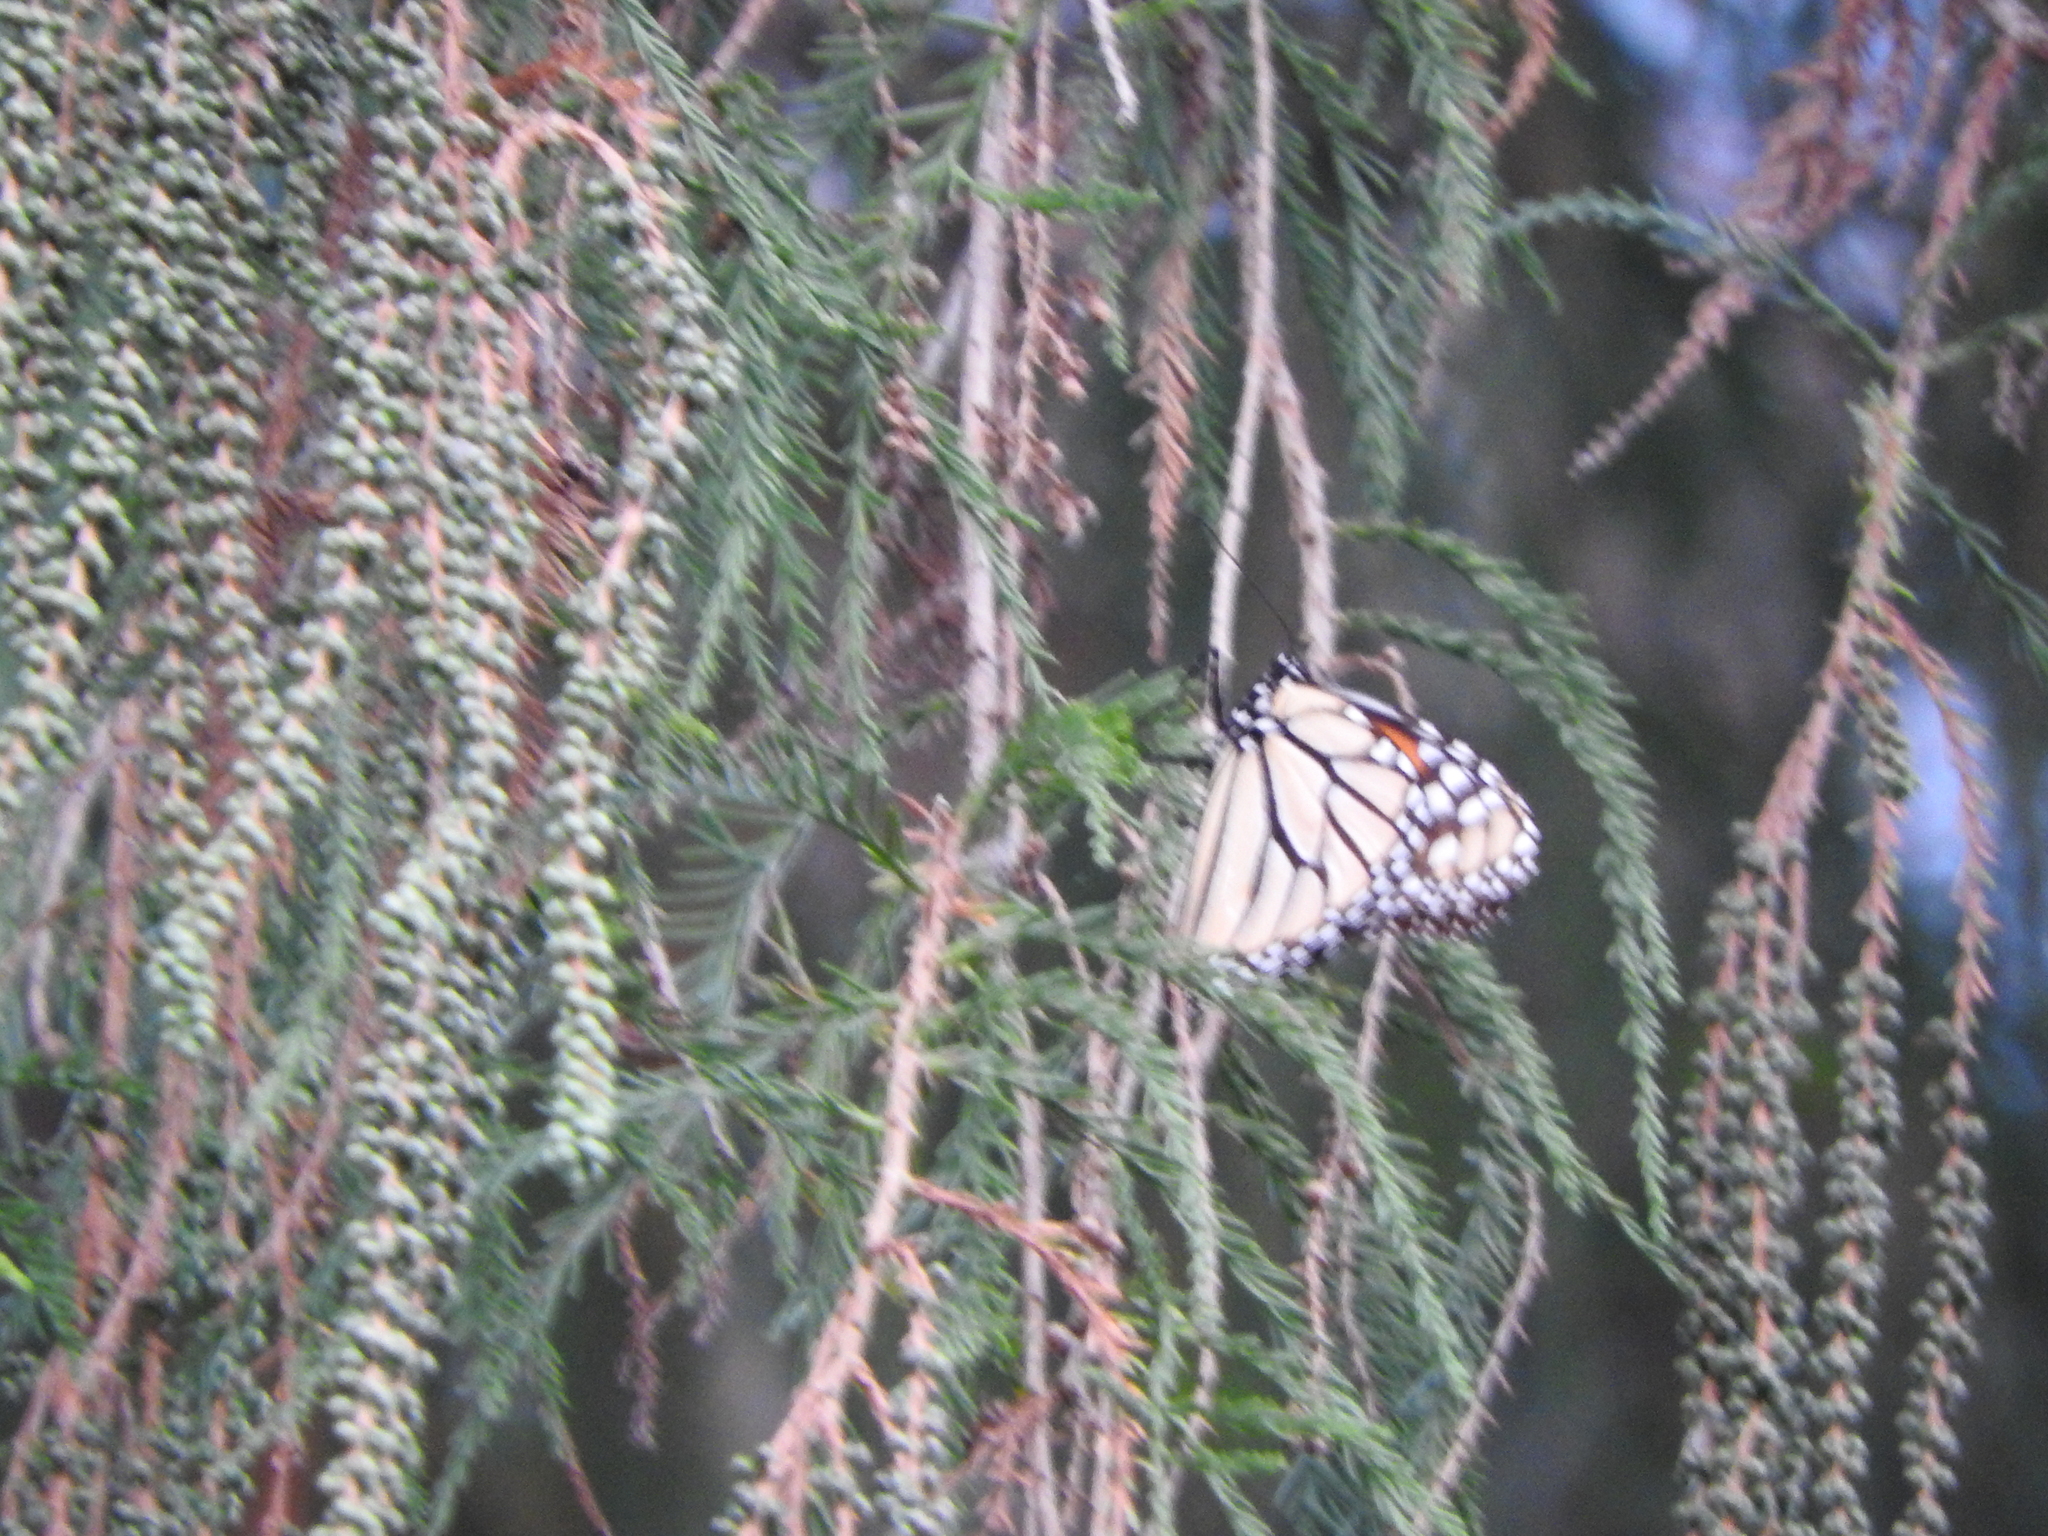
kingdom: Animalia
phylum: Arthropoda
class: Insecta
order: Lepidoptera
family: Nymphalidae
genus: Danaus
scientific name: Danaus plexippus
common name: Monarch
